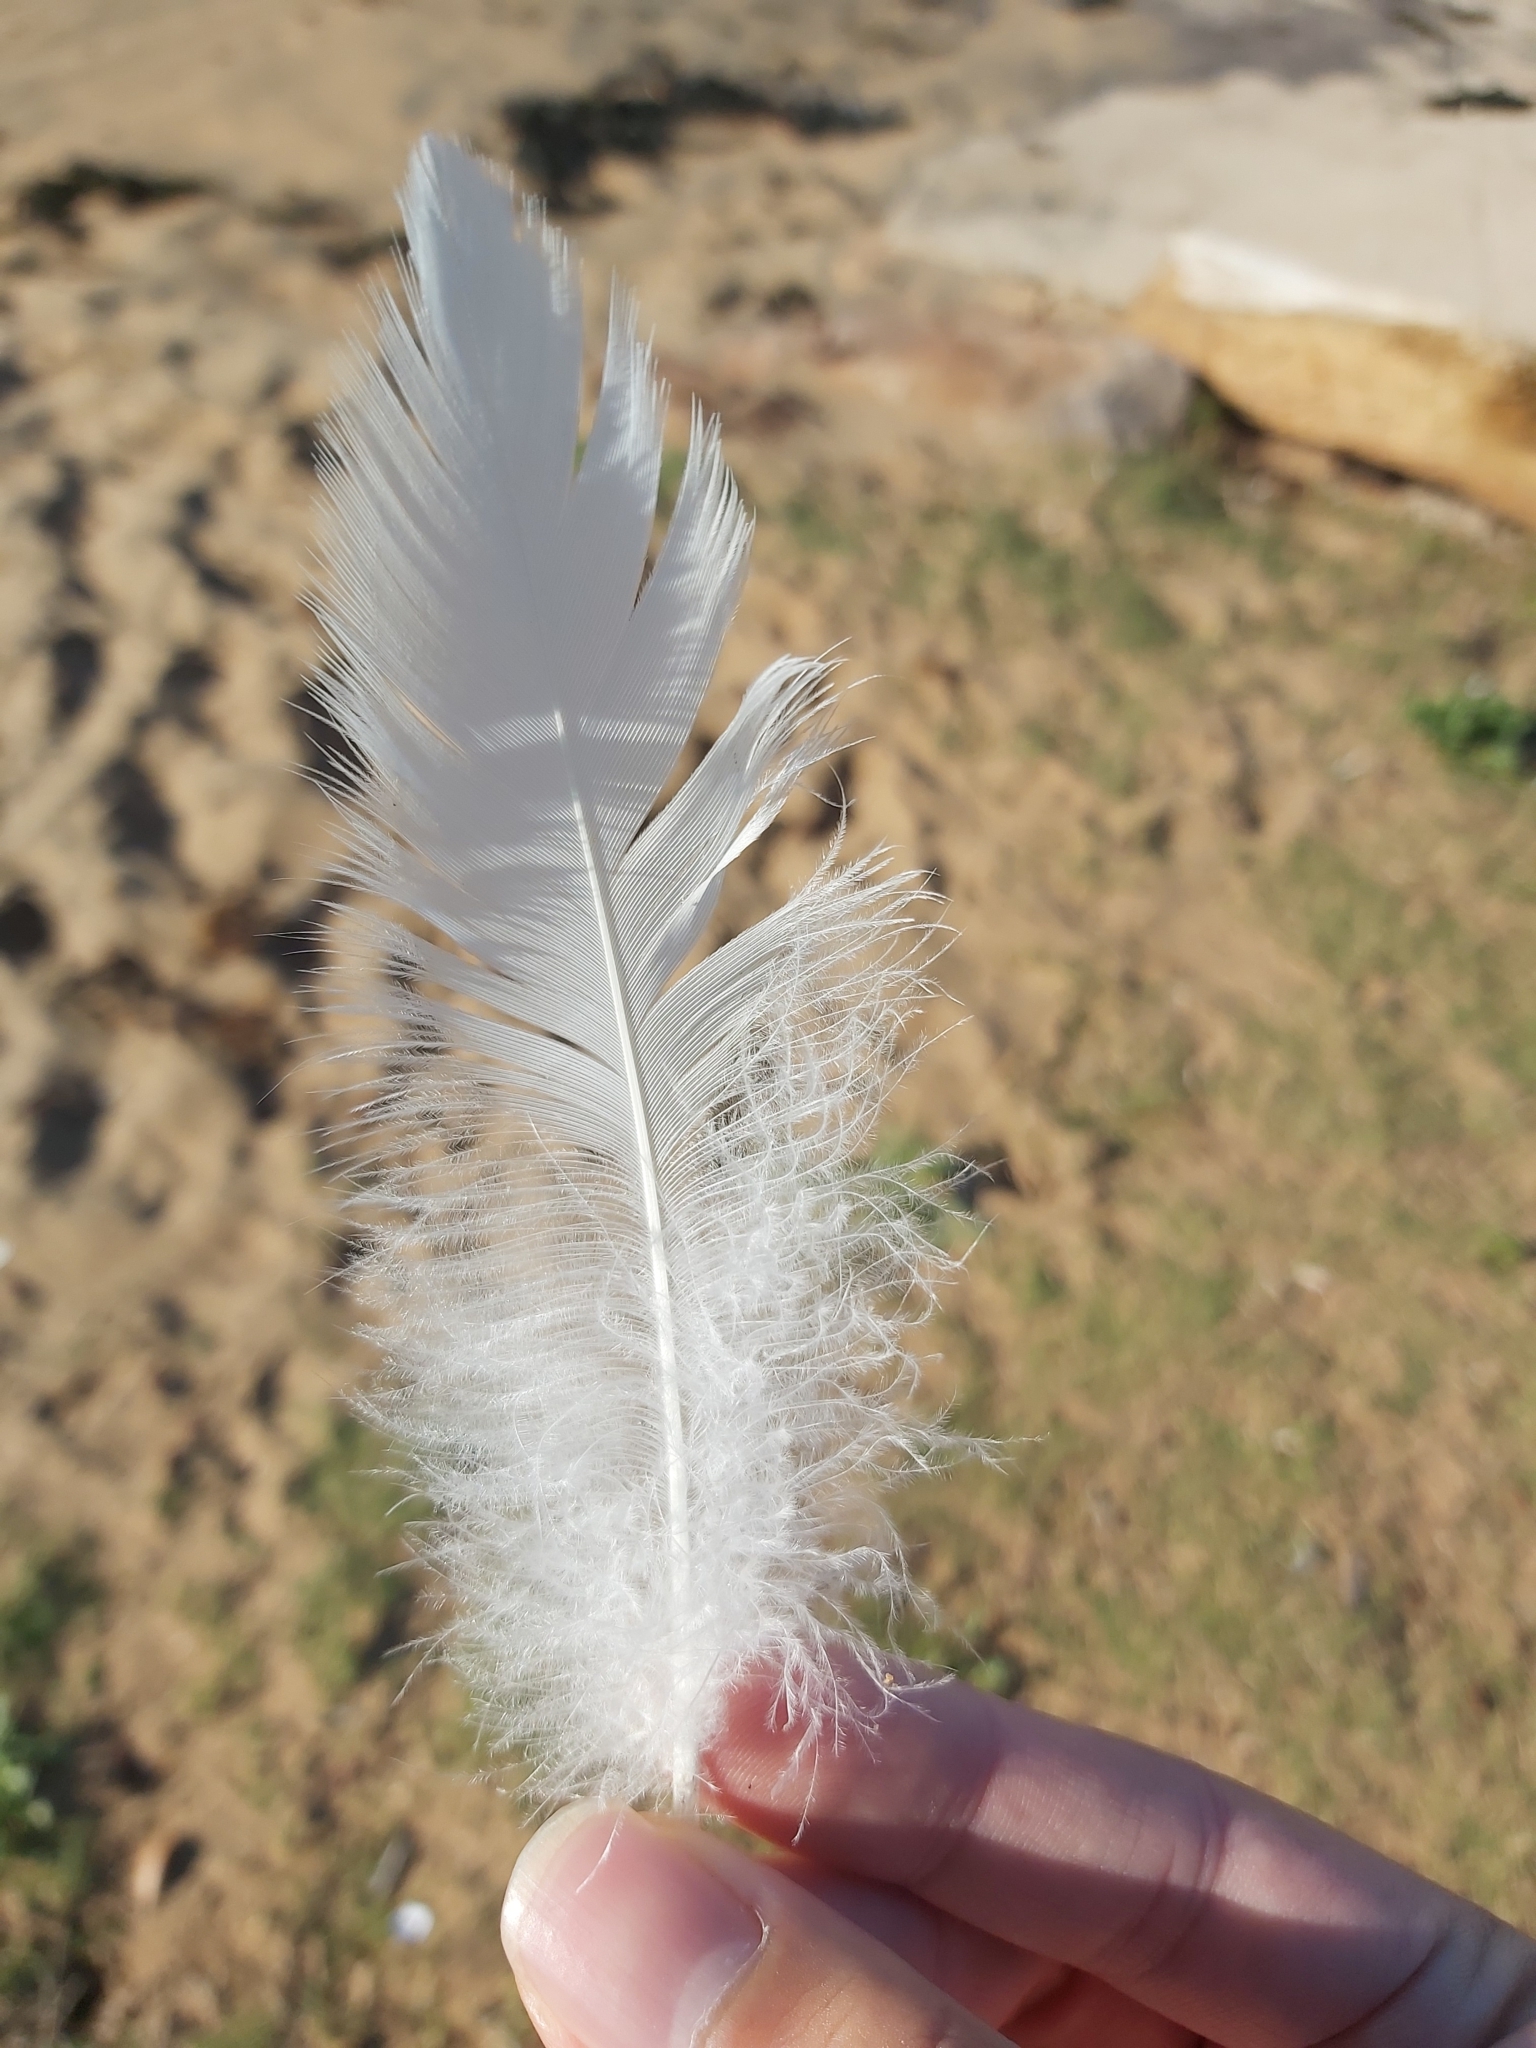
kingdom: Animalia
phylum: Chordata
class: Aves
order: Pelecaniformes
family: Pelecanidae
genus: Pelecanus
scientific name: Pelecanus conspicillatus
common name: Australian pelican
